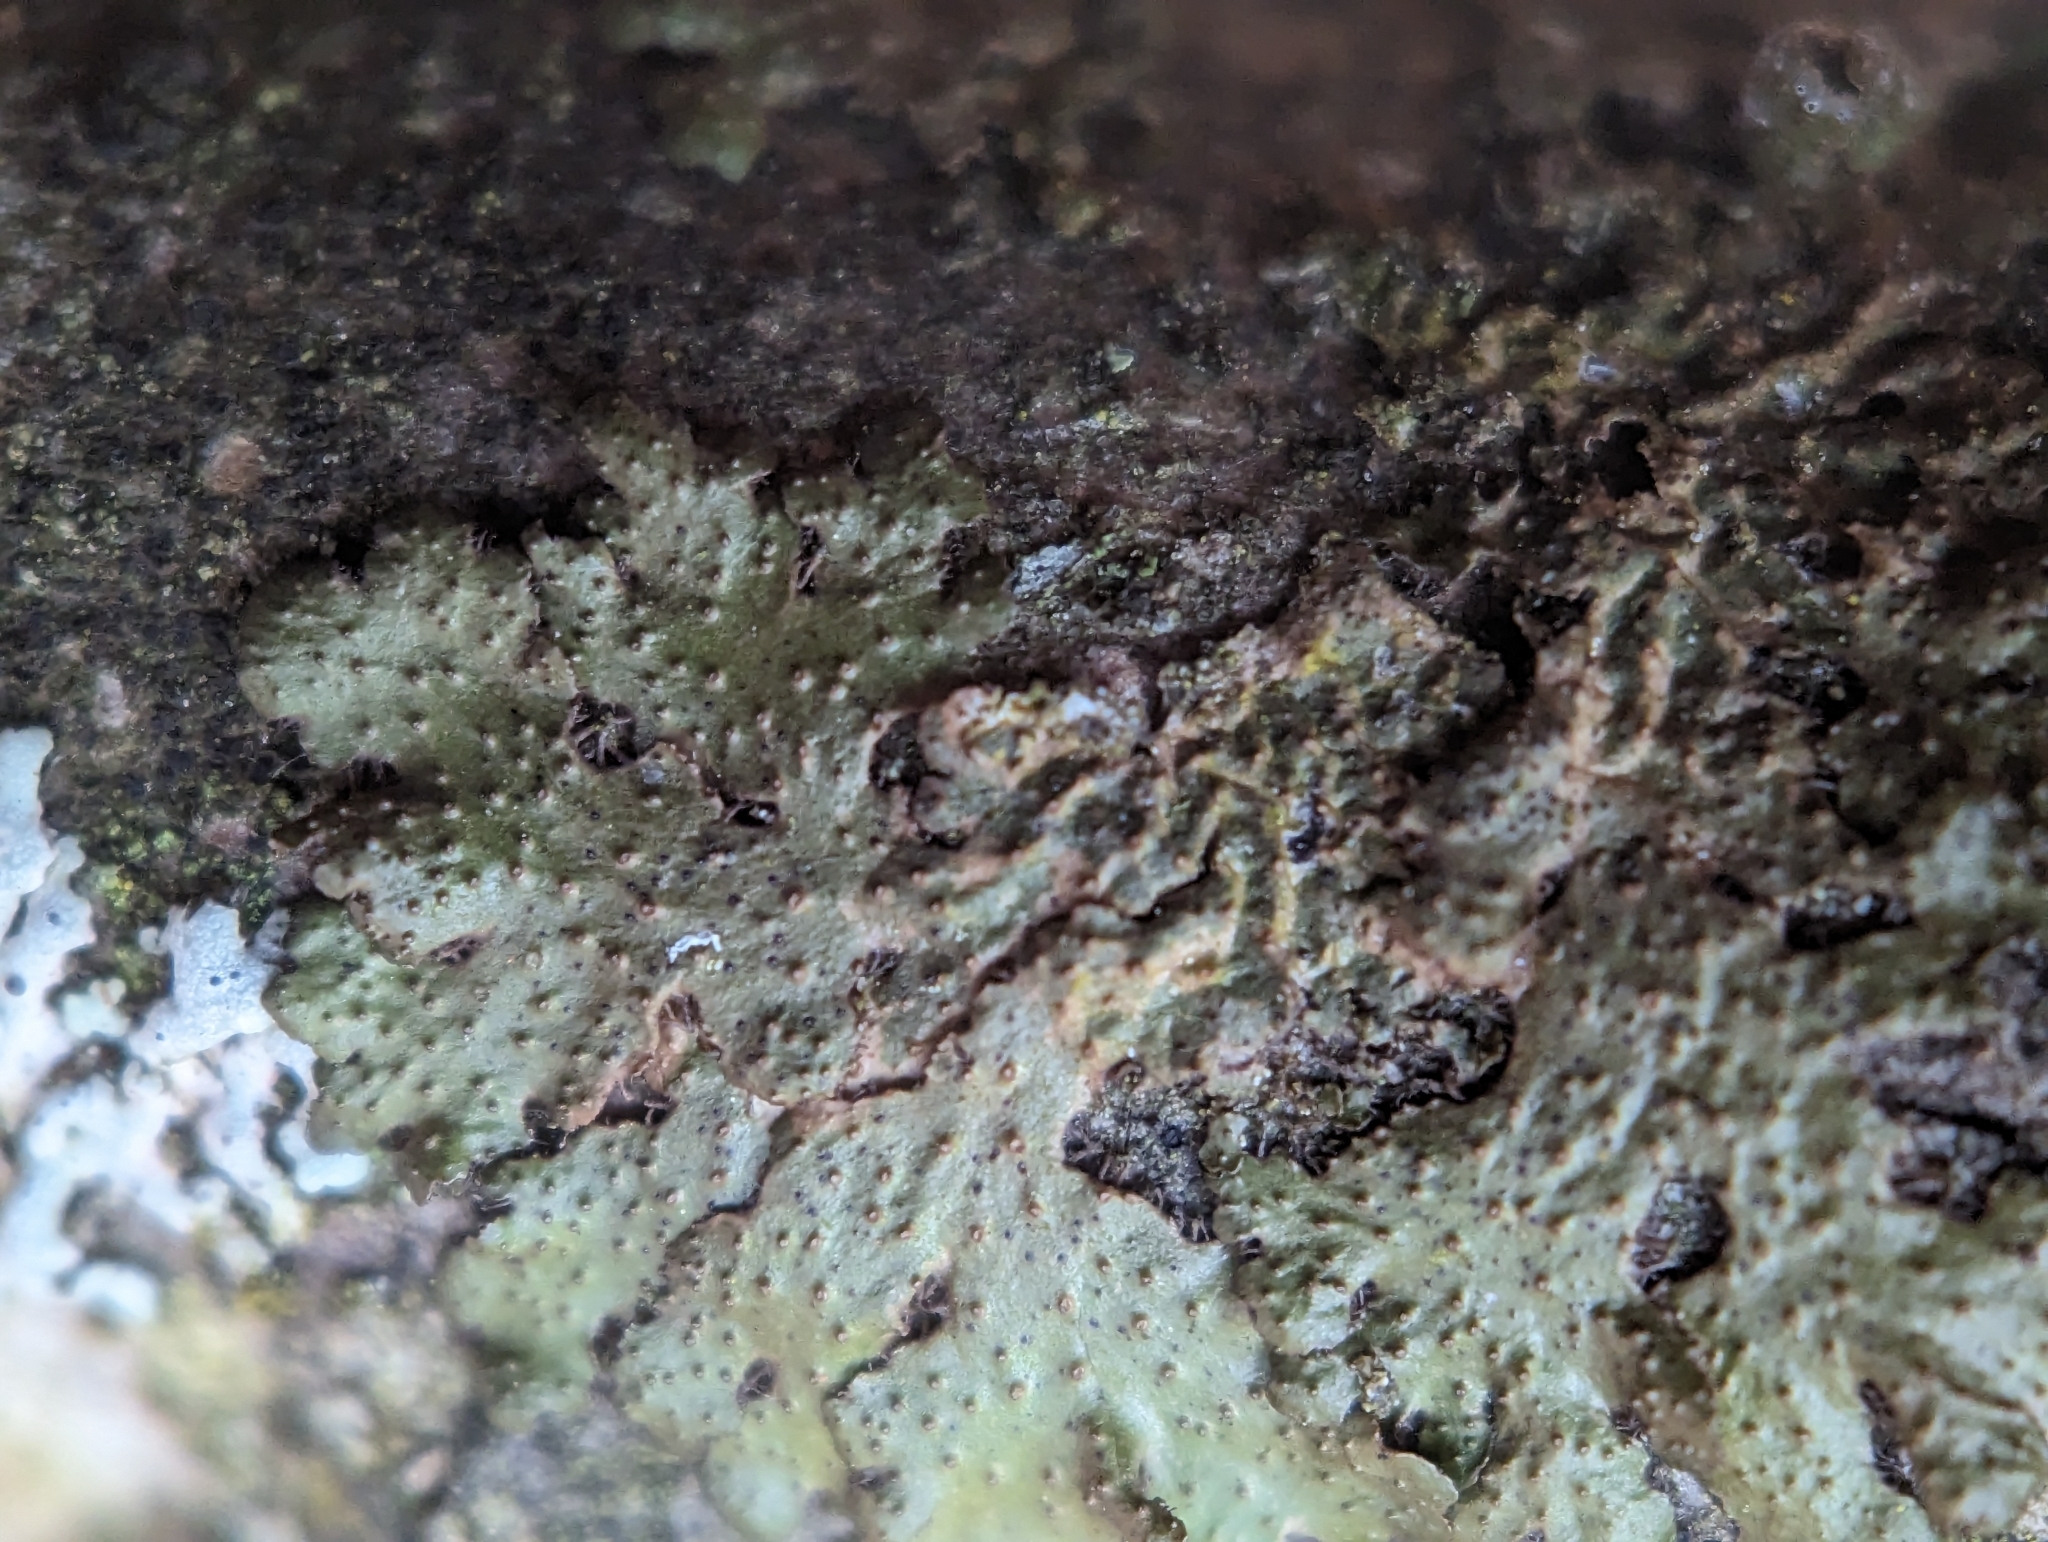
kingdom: Fungi
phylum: Ascomycota
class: Lecanoromycetes
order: Lecanorales
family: Parmeliaceae
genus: Melanohalea
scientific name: Melanohalea exasperata
